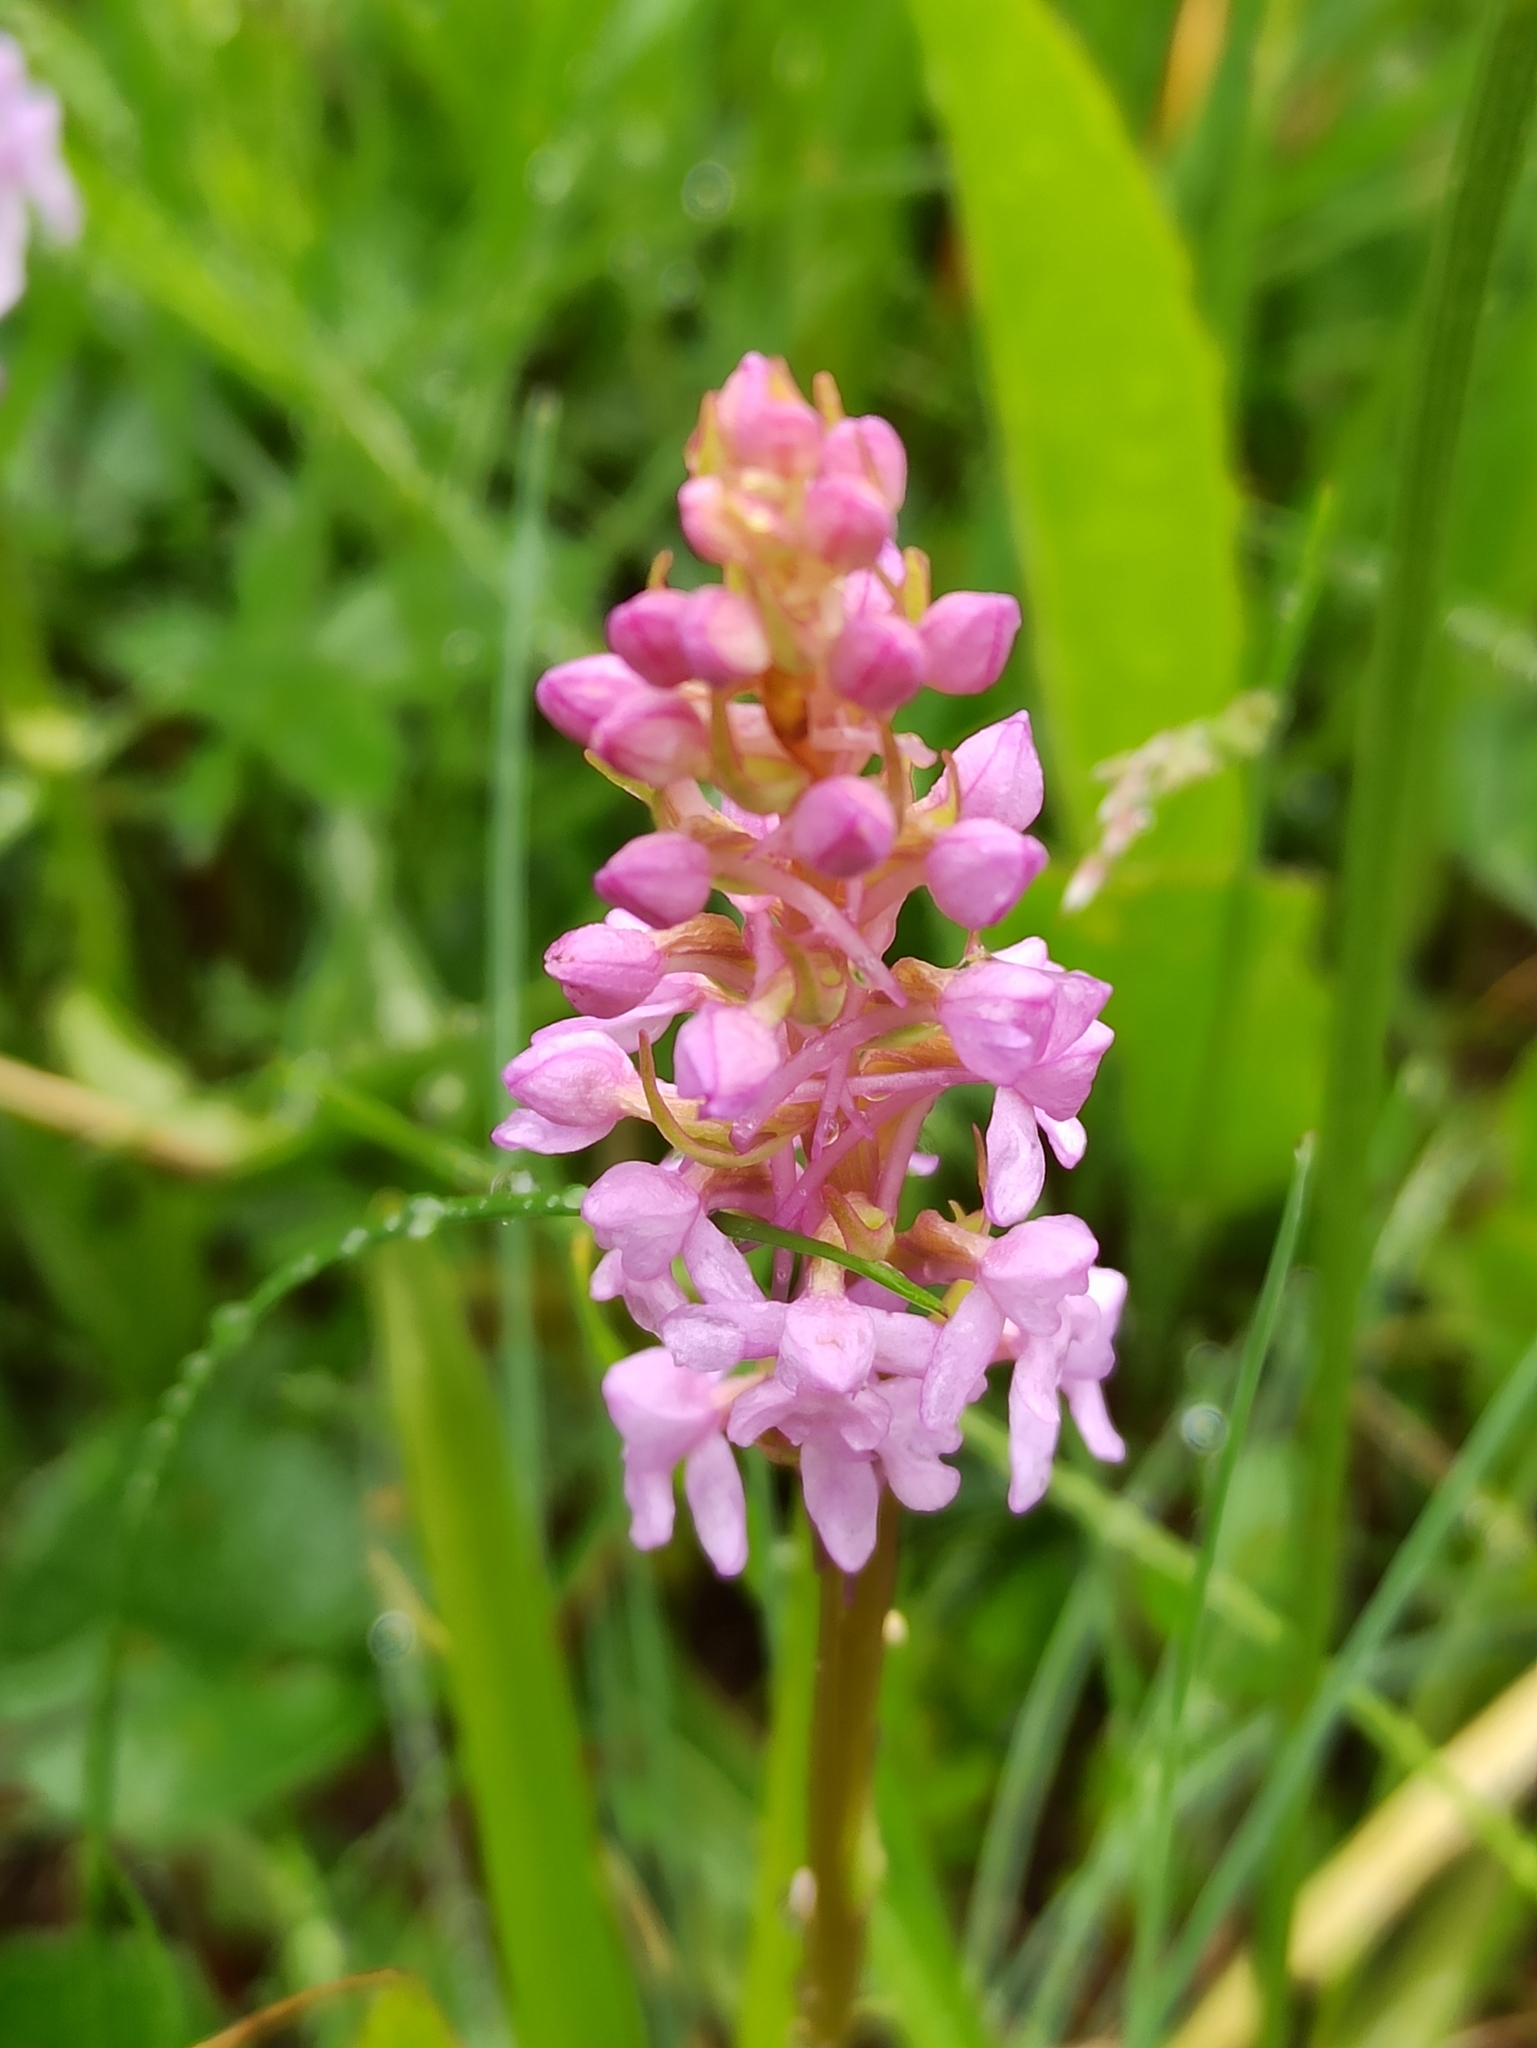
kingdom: Plantae
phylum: Tracheophyta
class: Liliopsida
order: Asparagales
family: Orchidaceae
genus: Gymnadenia
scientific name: Gymnadenia conopsea
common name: Fragrant orchid
